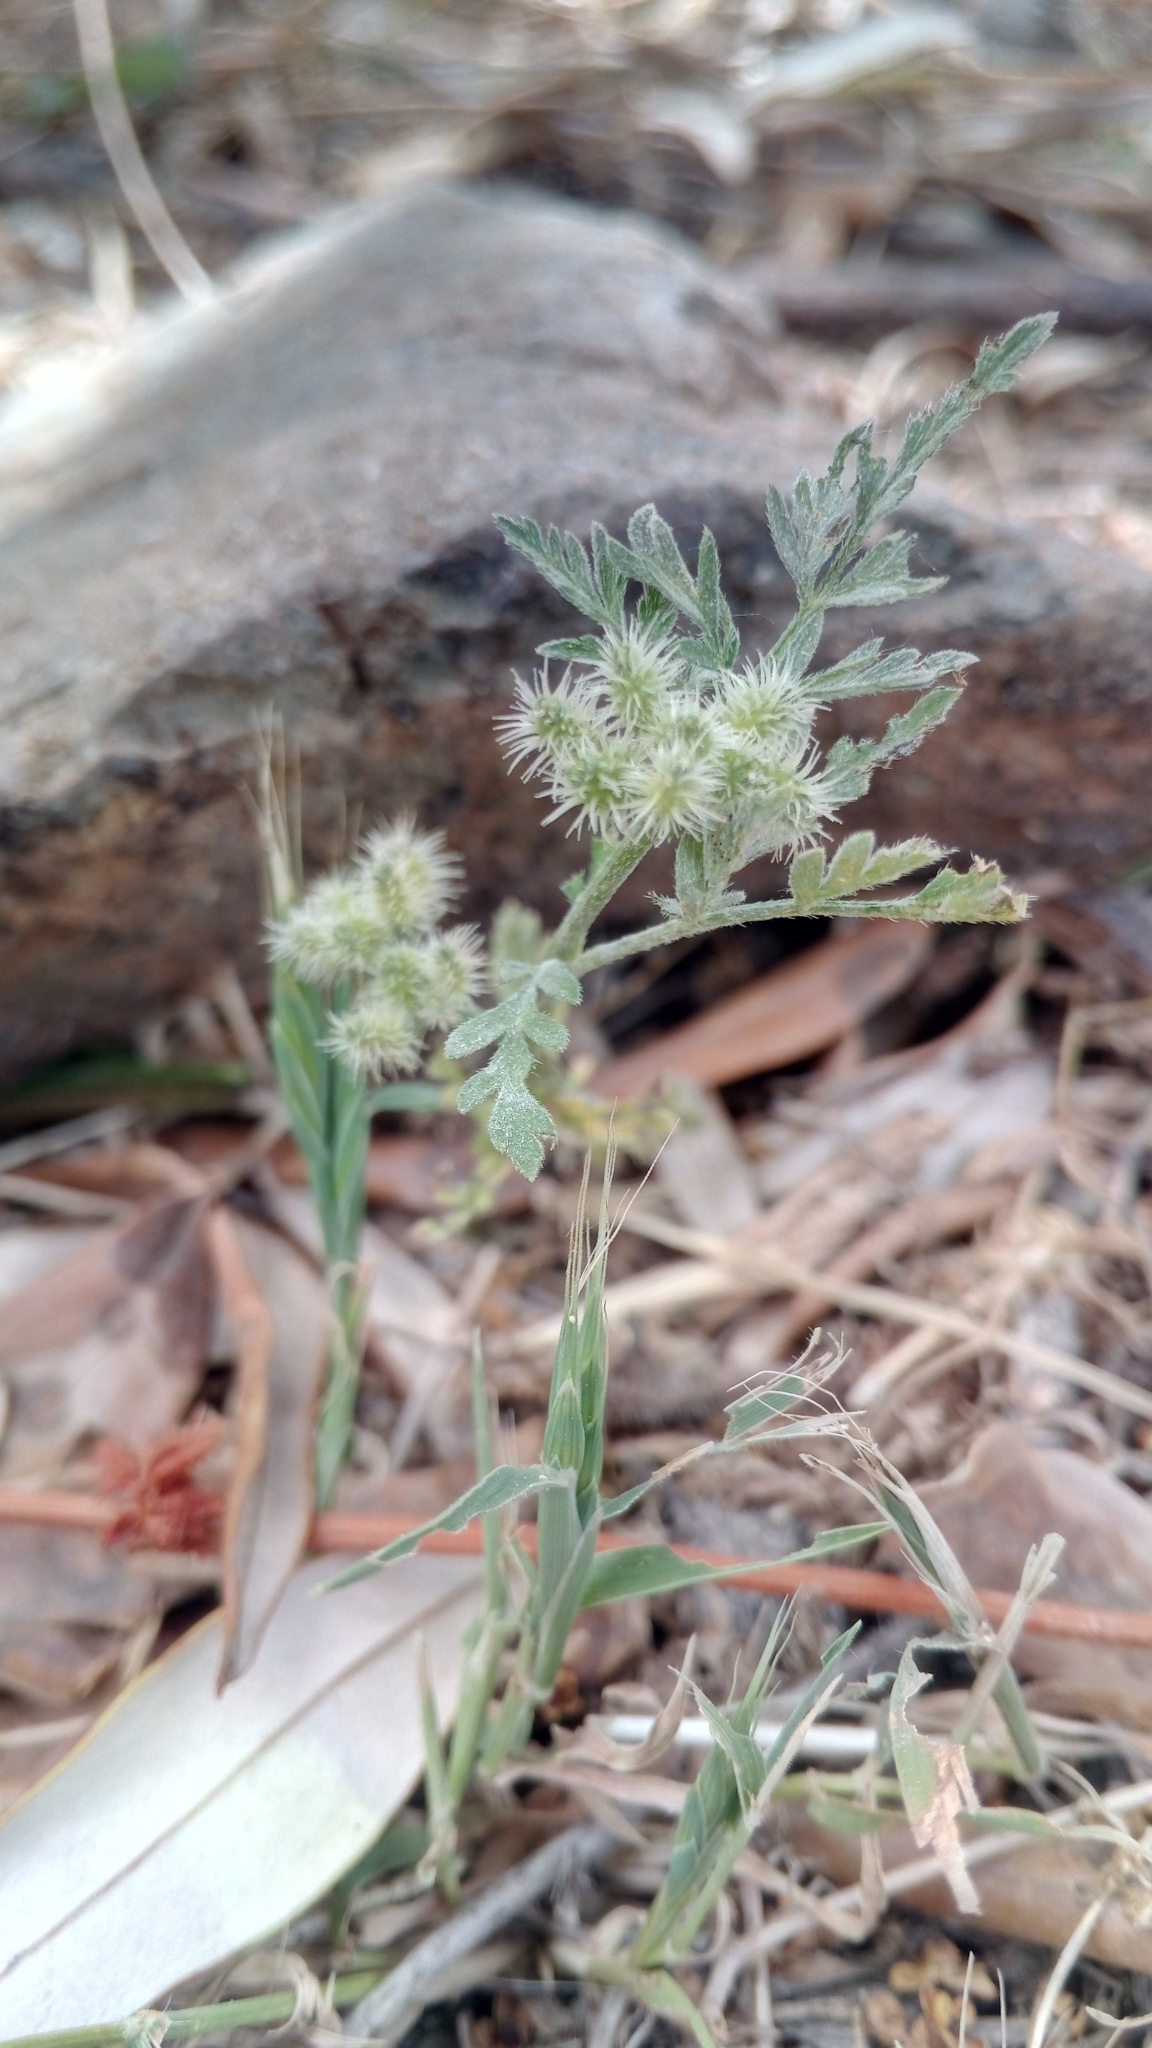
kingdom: Plantae
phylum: Tracheophyta
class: Magnoliopsida
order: Apiales
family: Apiaceae
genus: Torilis
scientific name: Torilis nodosa
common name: Knotted hedge-parsley
